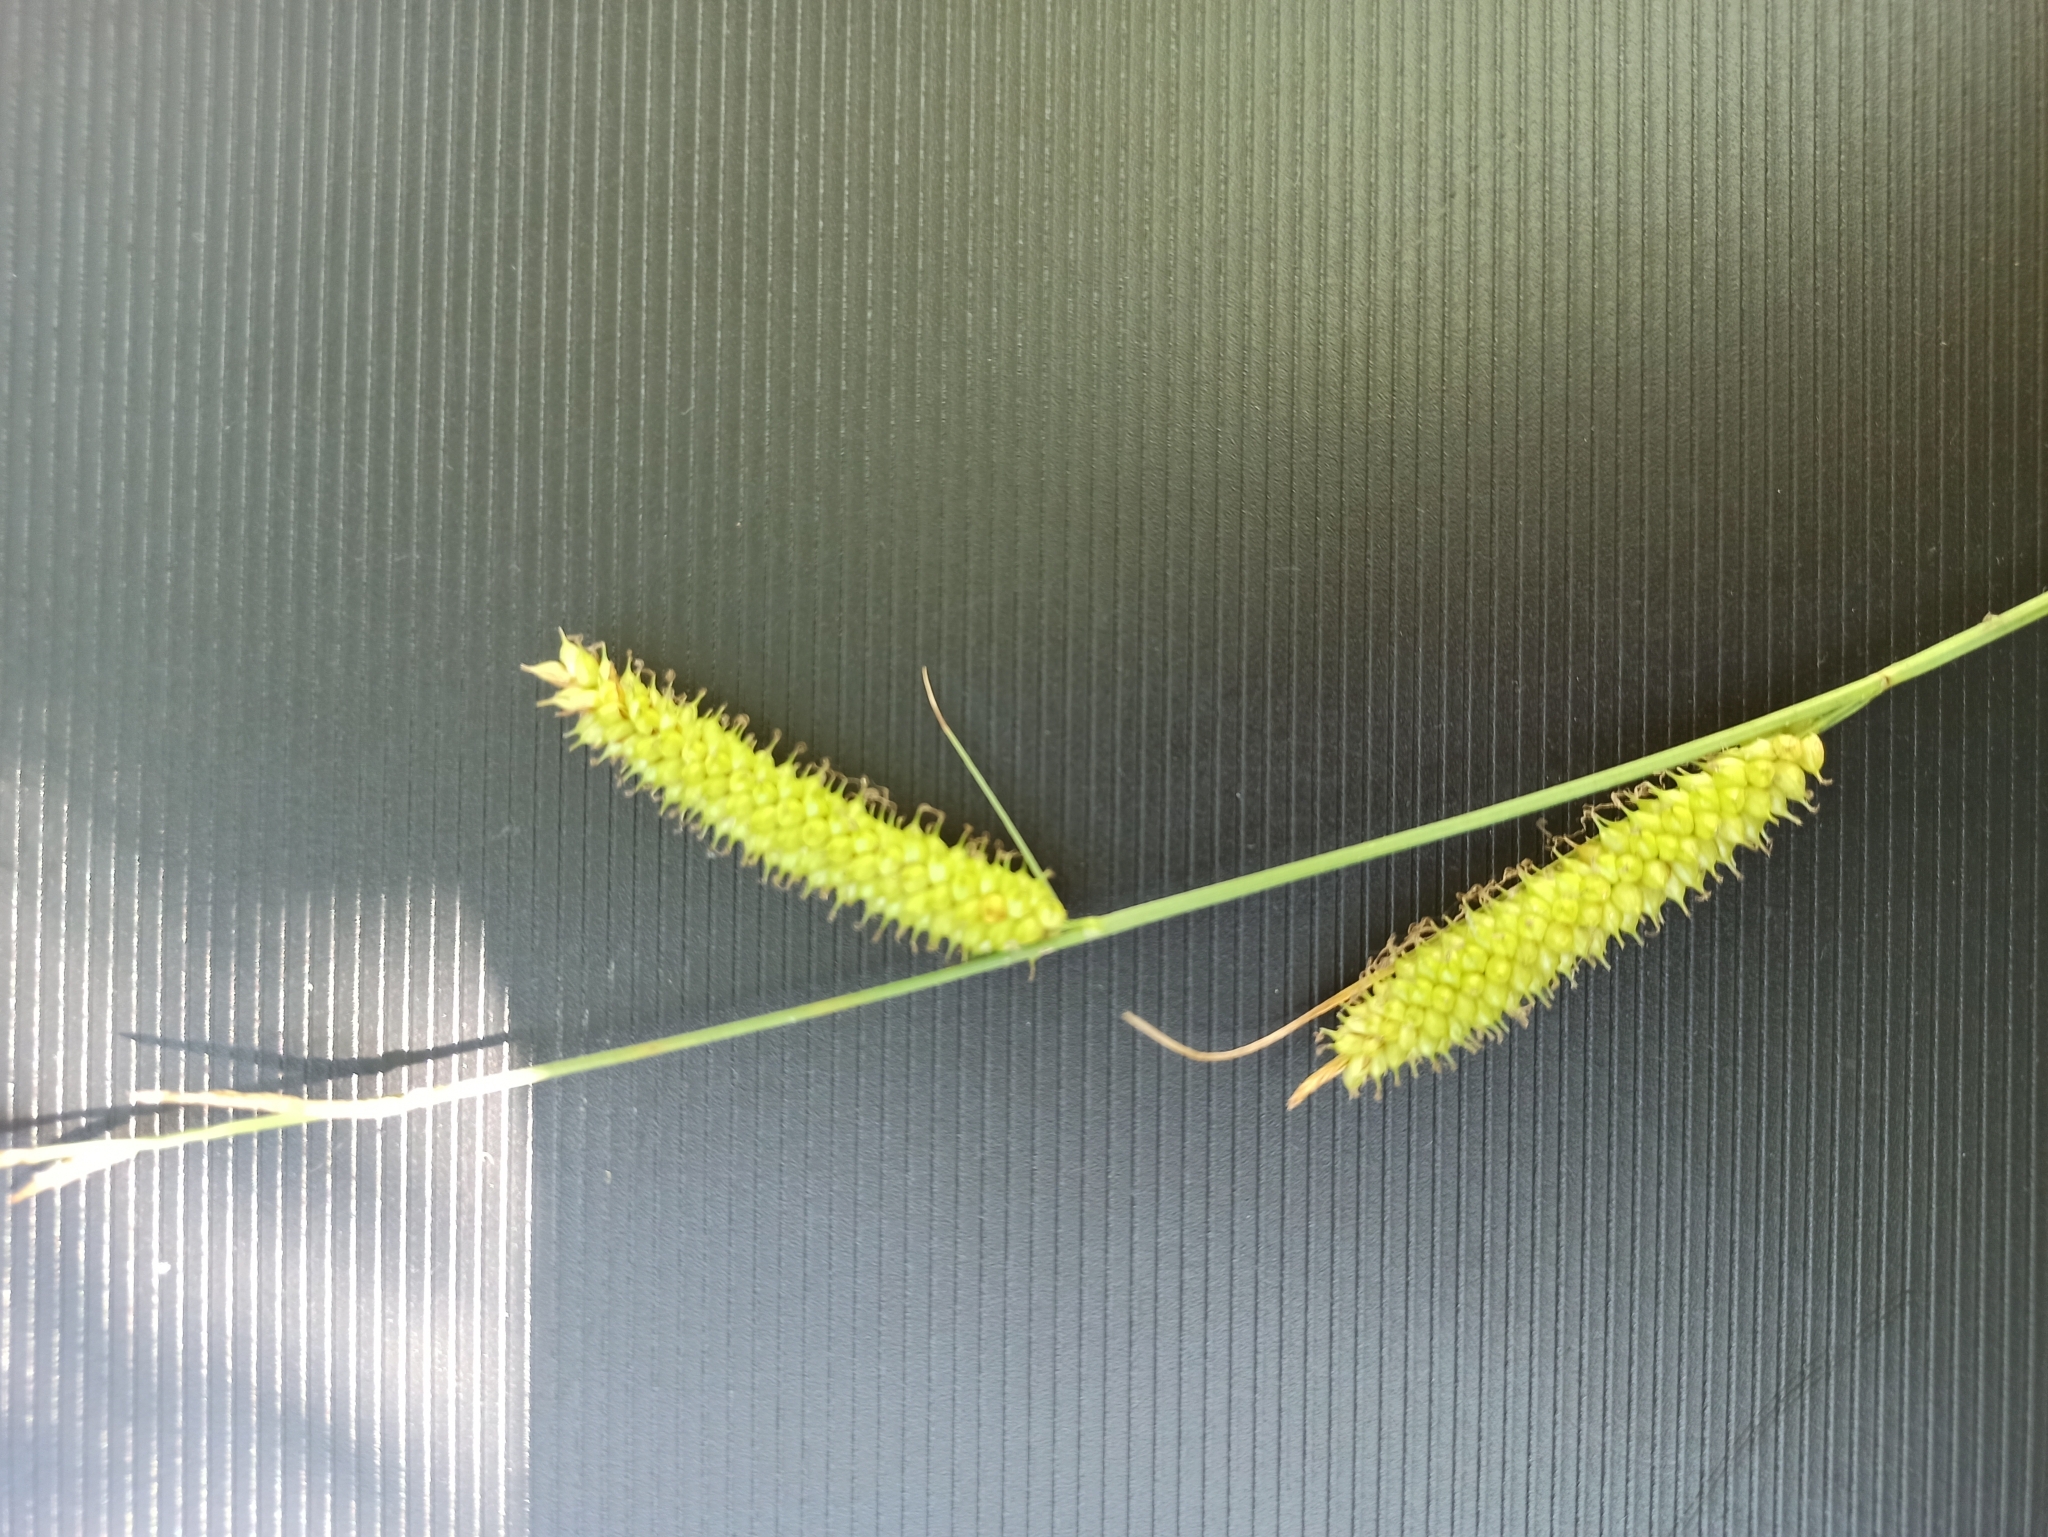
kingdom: Plantae
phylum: Tracheophyta
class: Liliopsida
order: Poales
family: Cyperaceae
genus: Carex
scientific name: Carex rostrata
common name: Bottle sedge
